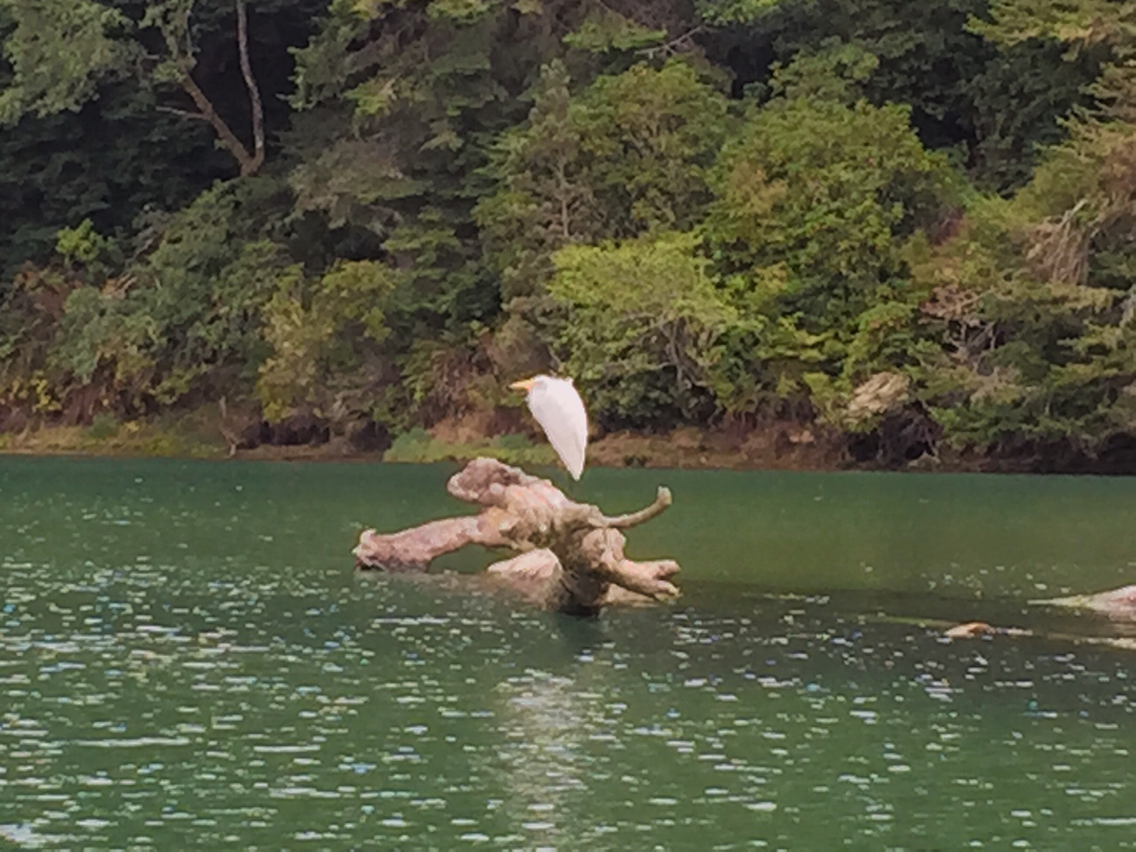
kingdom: Animalia
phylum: Chordata
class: Aves
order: Pelecaniformes
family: Ardeidae
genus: Ardea
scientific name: Ardea alba
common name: Great egret
